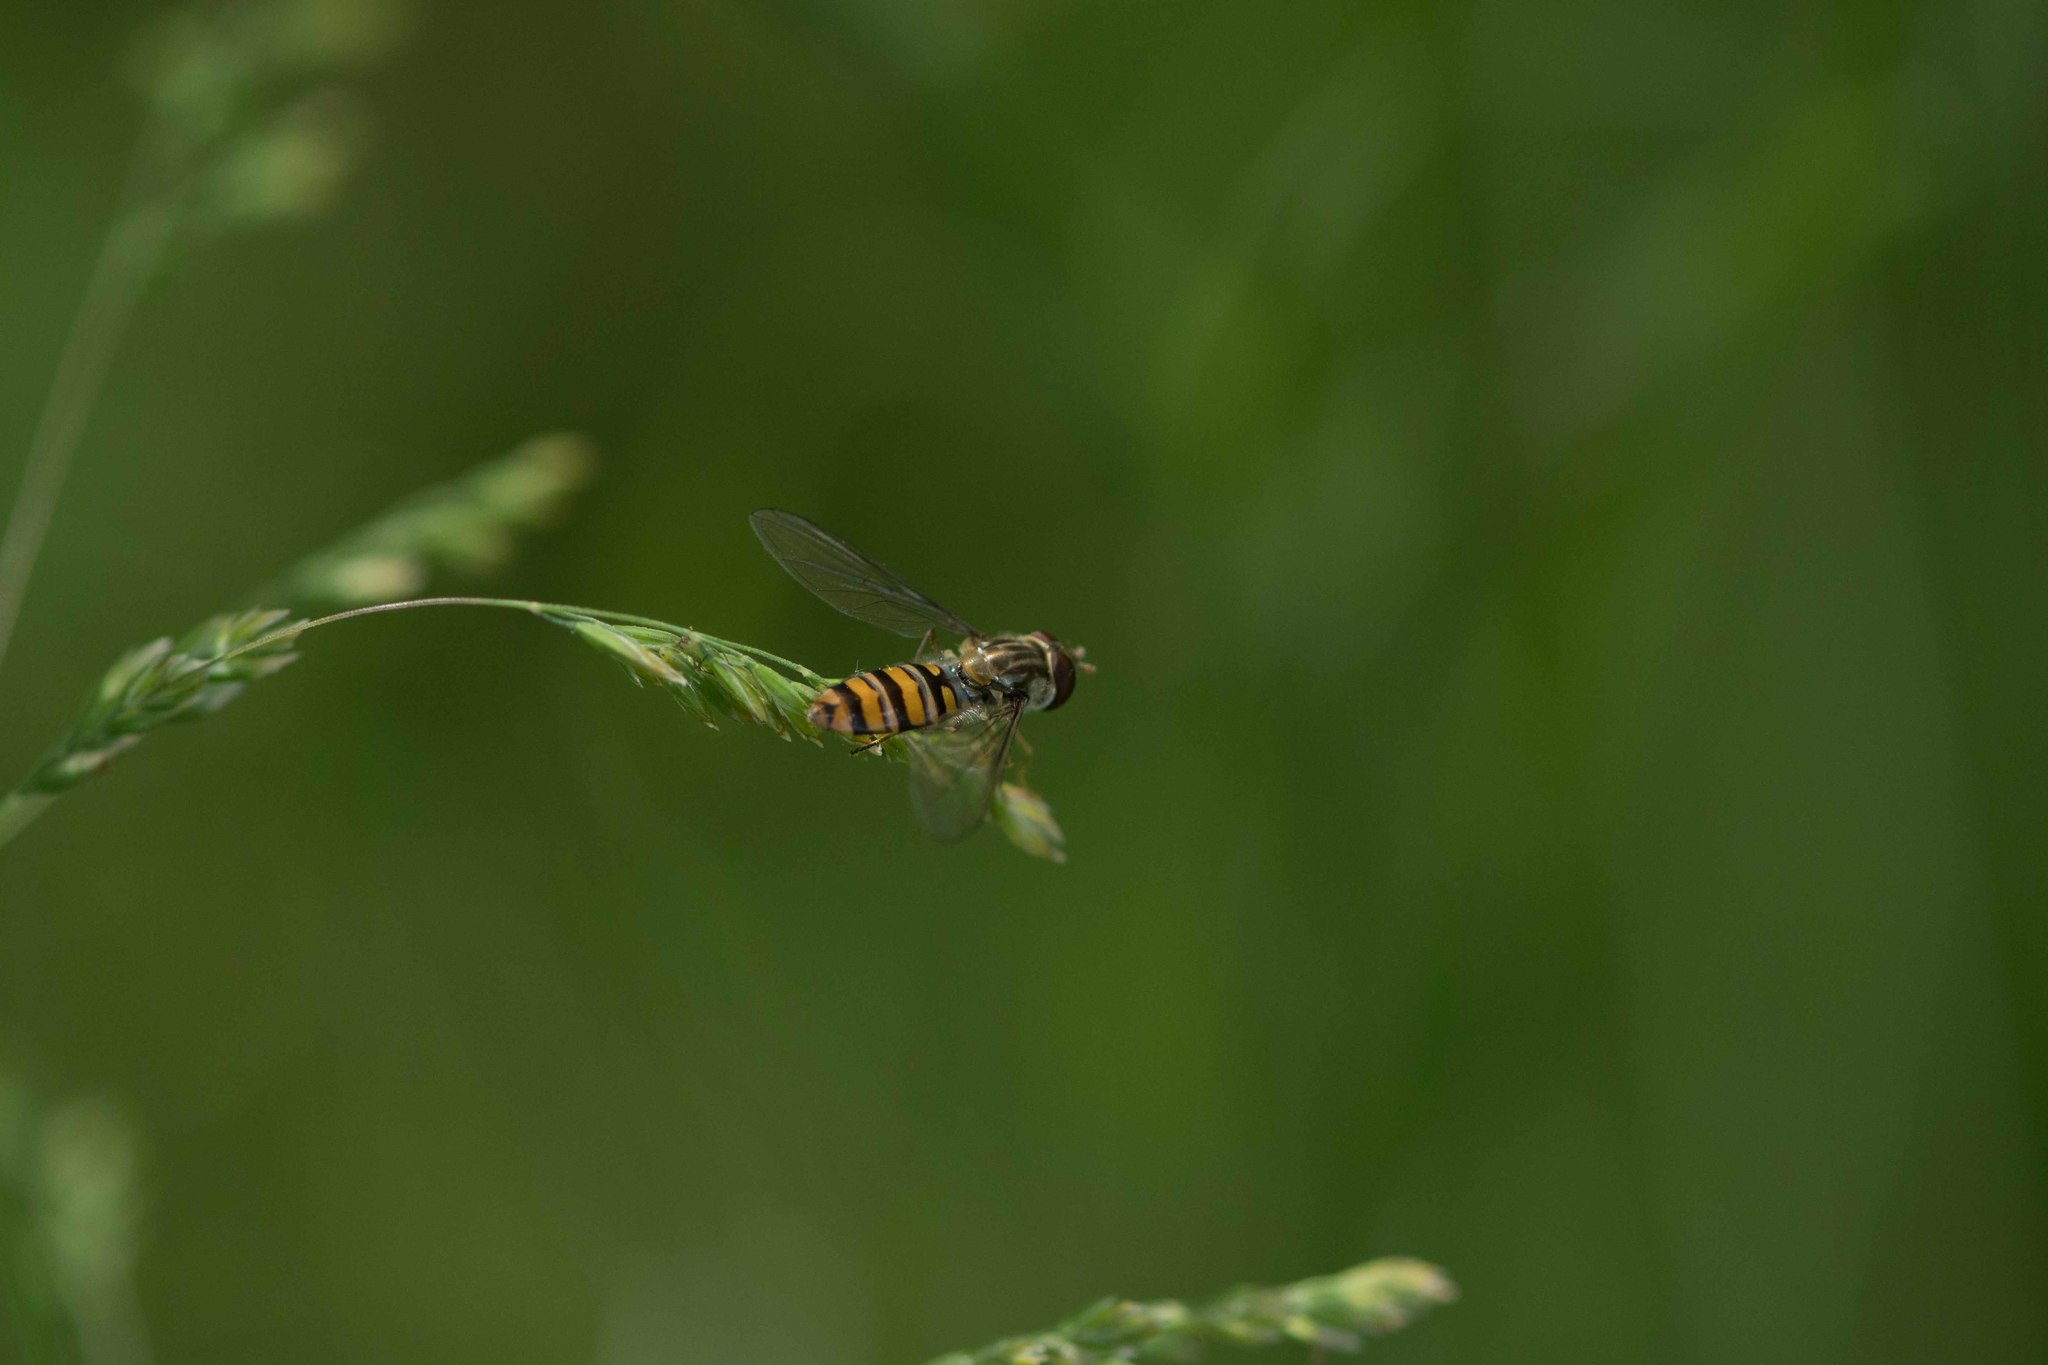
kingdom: Animalia
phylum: Arthropoda
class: Insecta
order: Diptera
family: Syrphidae
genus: Episyrphus
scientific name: Episyrphus balteatus
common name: Marmalade hoverfly
